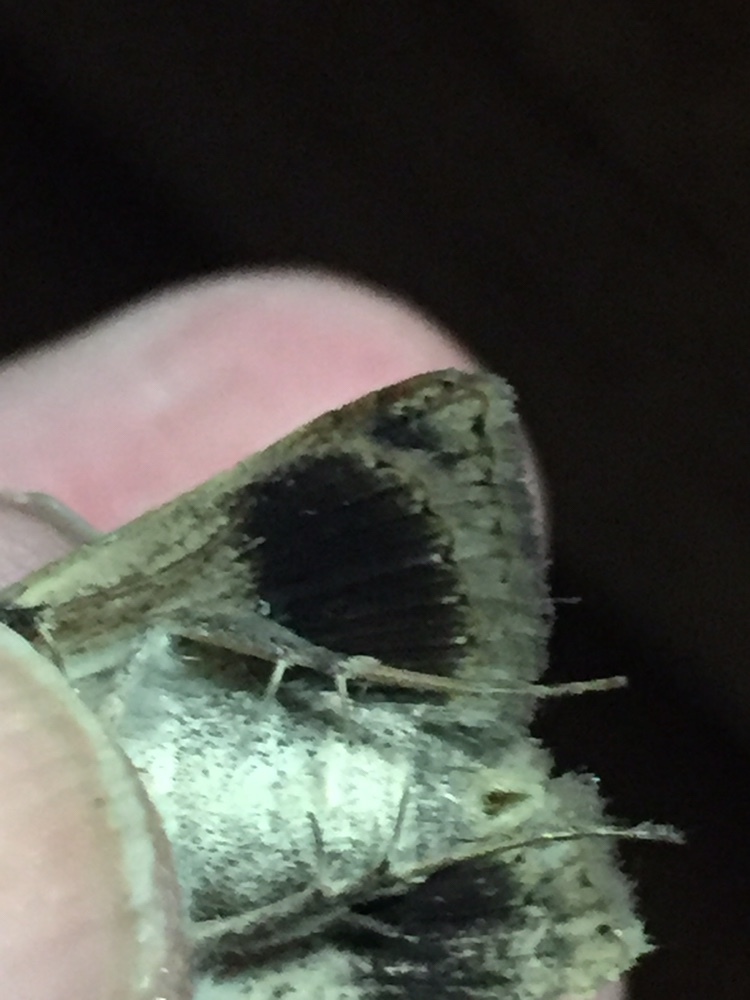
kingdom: Animalia
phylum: Arthropoda
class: Insecta
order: Lepidoptera
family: Erebidae
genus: Pantydia
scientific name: Pantydia sparsa
